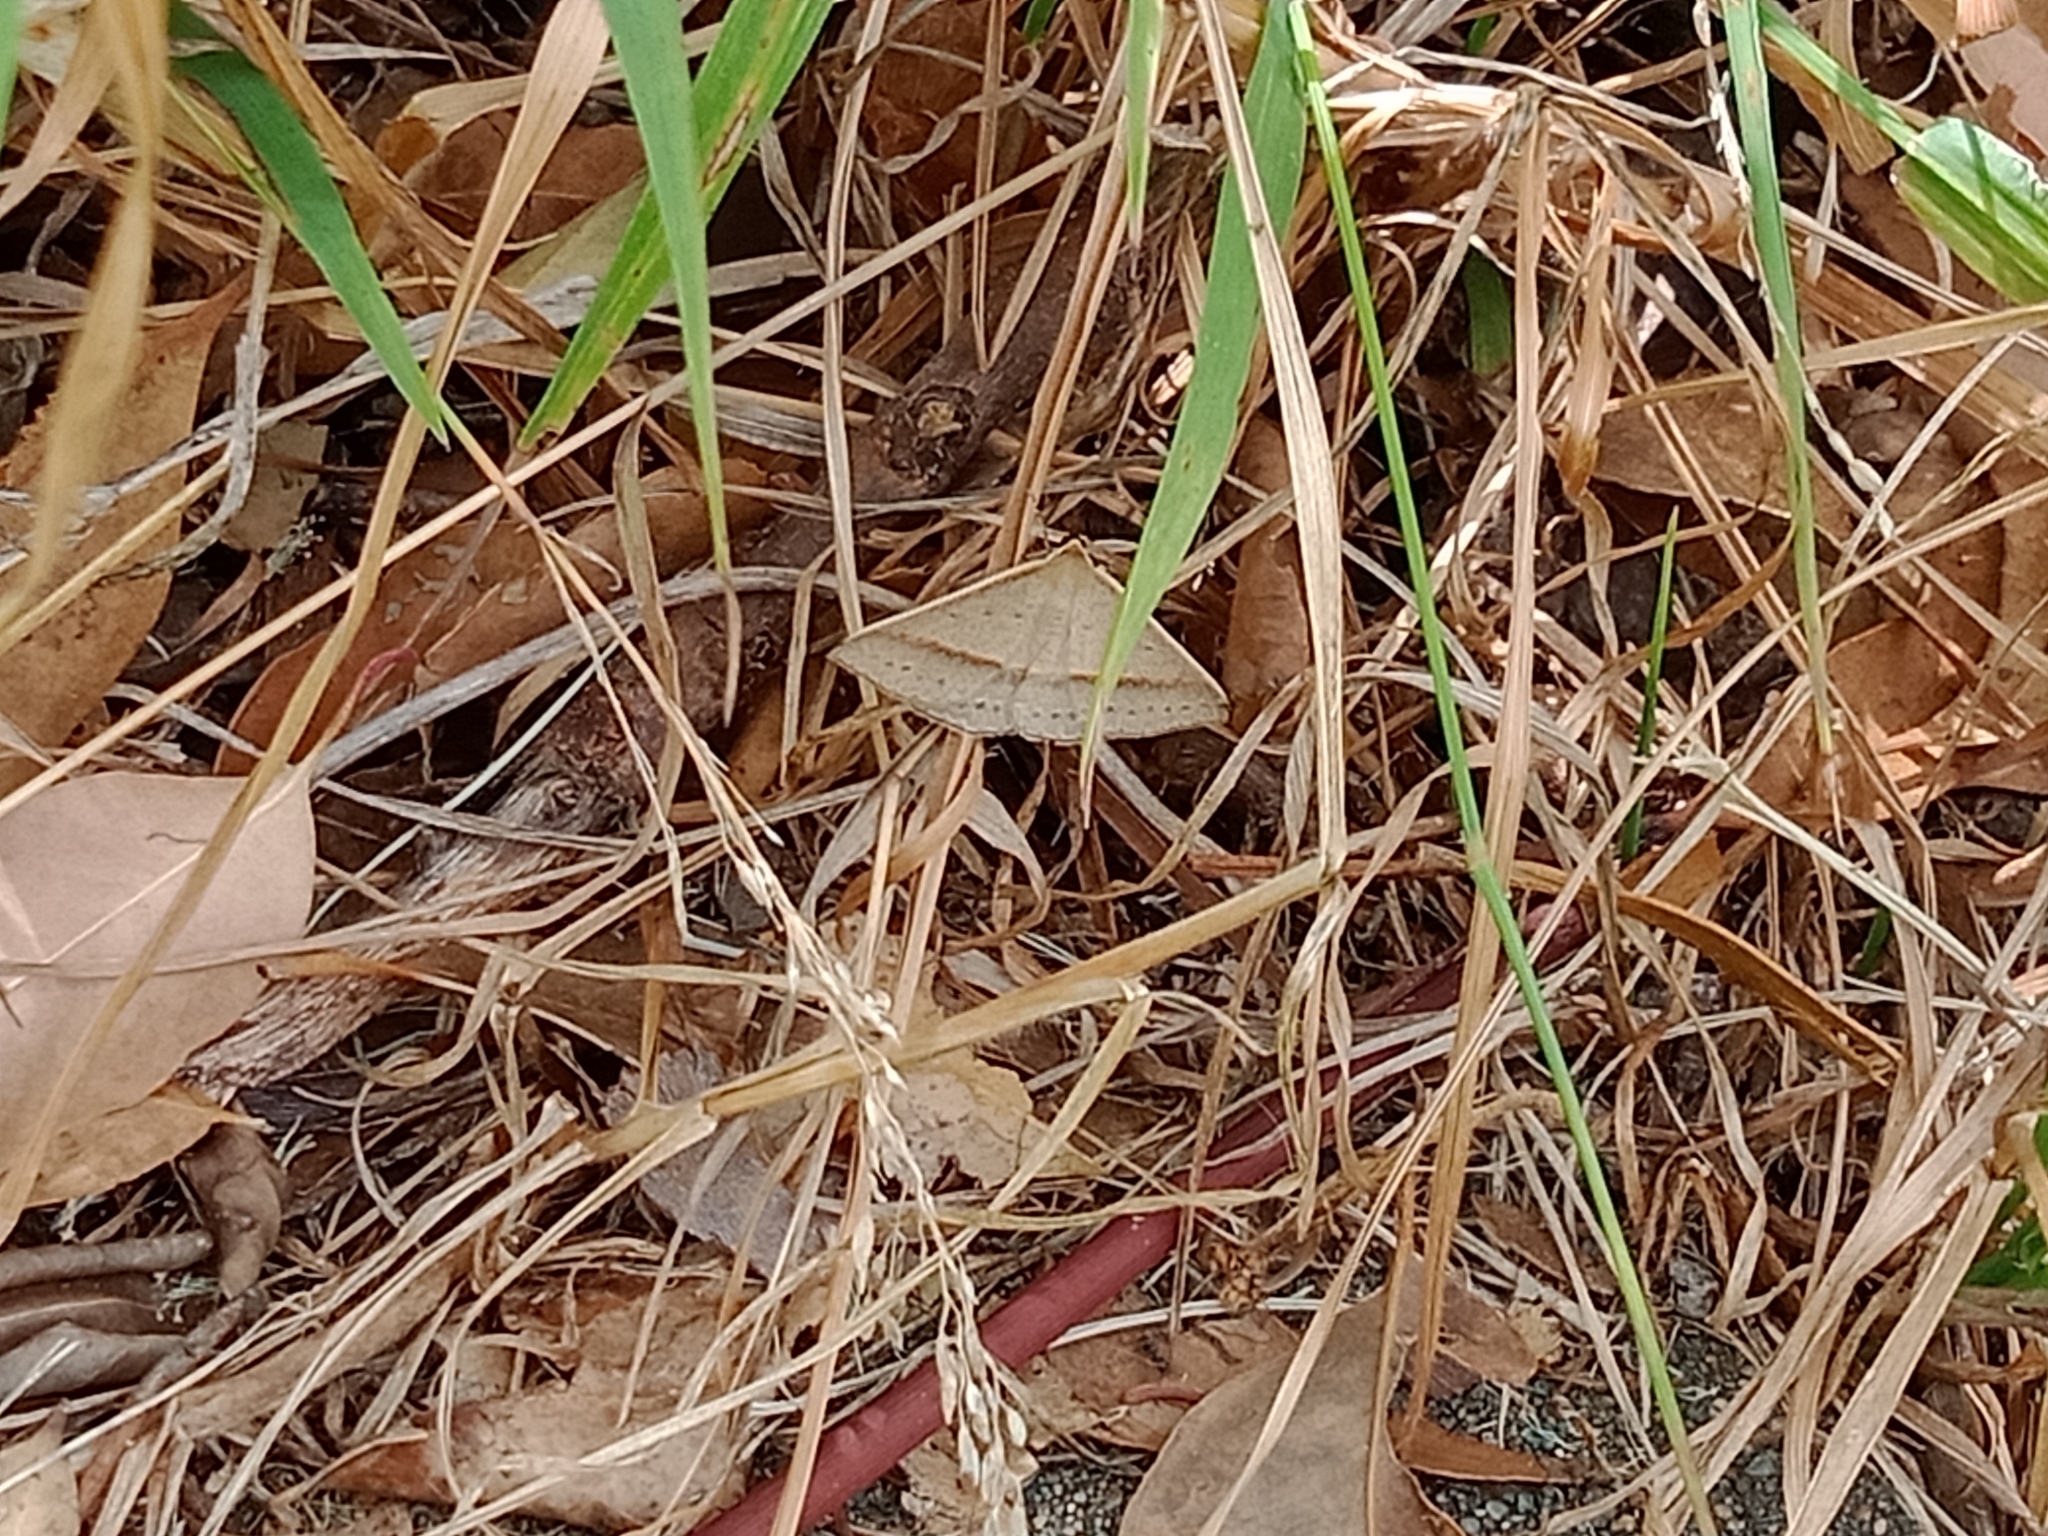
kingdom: Animalia
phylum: Arthropoda
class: Insecta
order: Lepidoptera
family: Geometridae
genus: Epidesmia
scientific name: Epidesmia tryxaria
